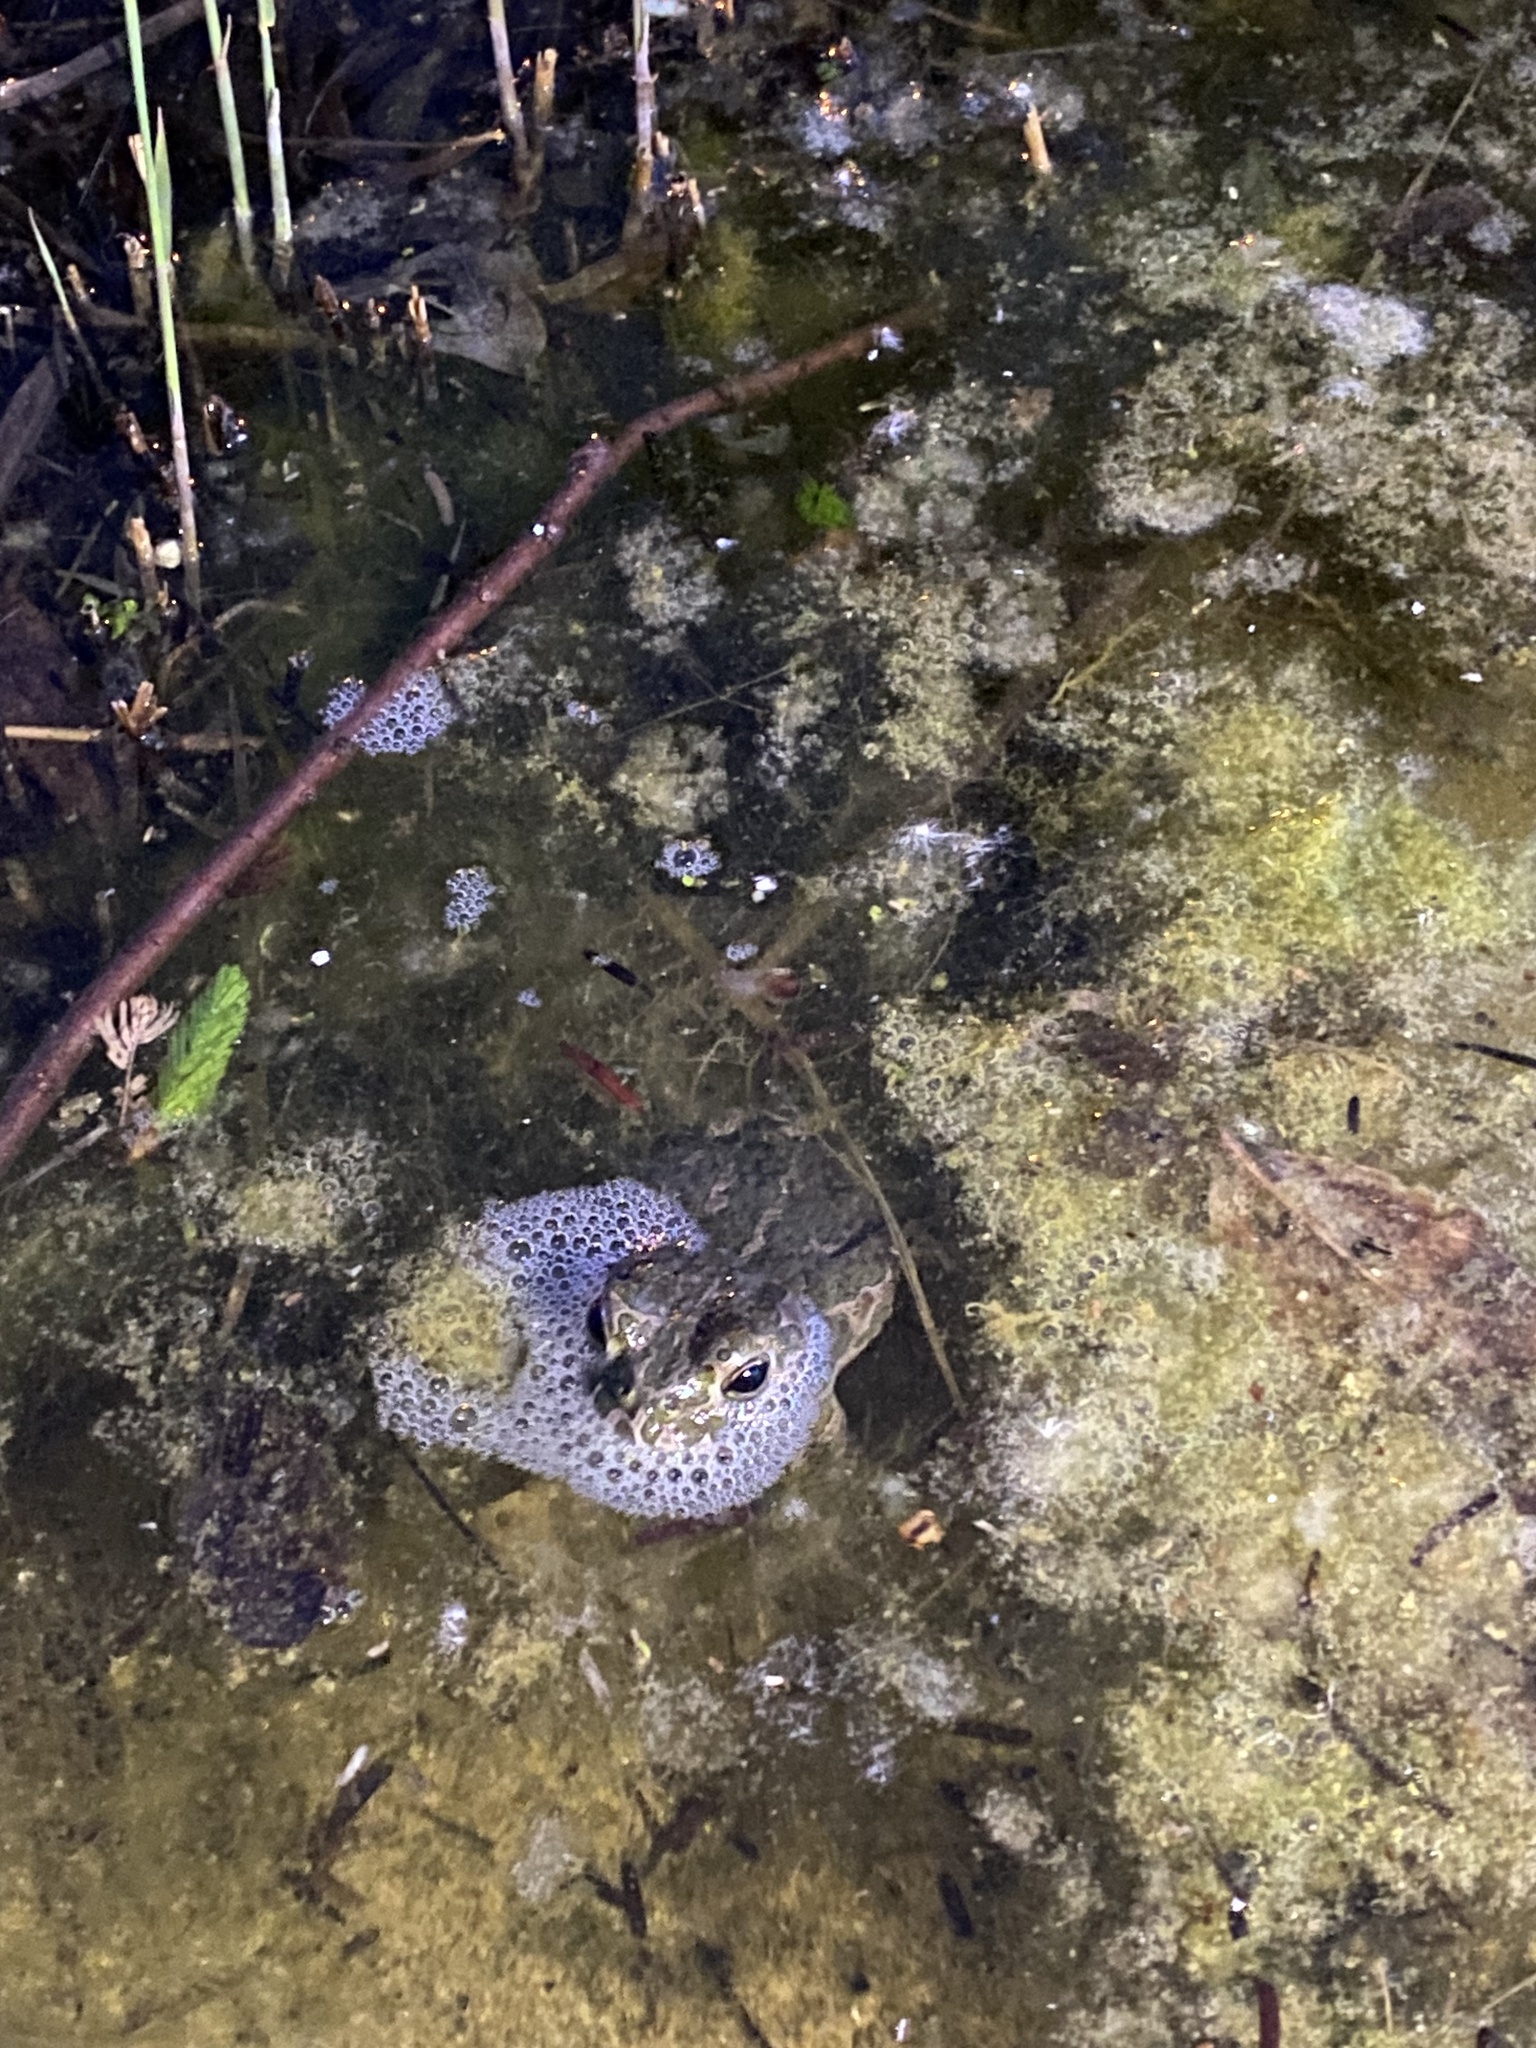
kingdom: Animalia
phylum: Chordata
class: Amphibia
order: Anura
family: Bufonidae
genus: Bufotes
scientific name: Bufotes viridis
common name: European green toad
